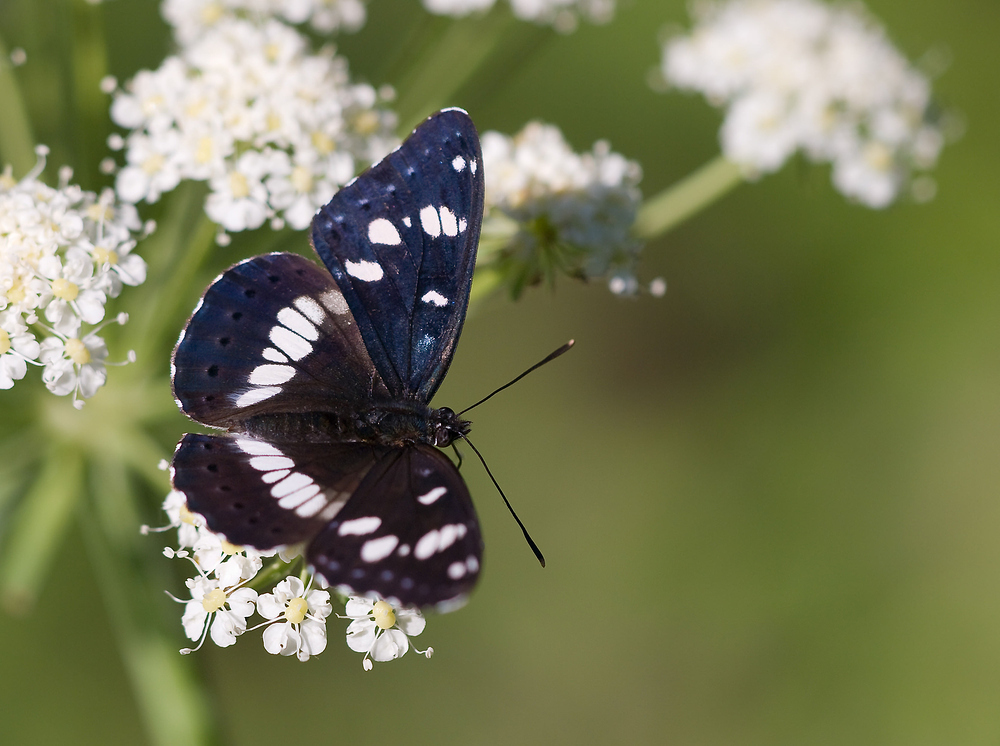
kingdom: Animalia
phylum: Arthropoda
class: Insecta
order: Lepidoptera
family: Nymphalidae
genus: Limenitis
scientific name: Limenitis reducta
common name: Southern white admiral
